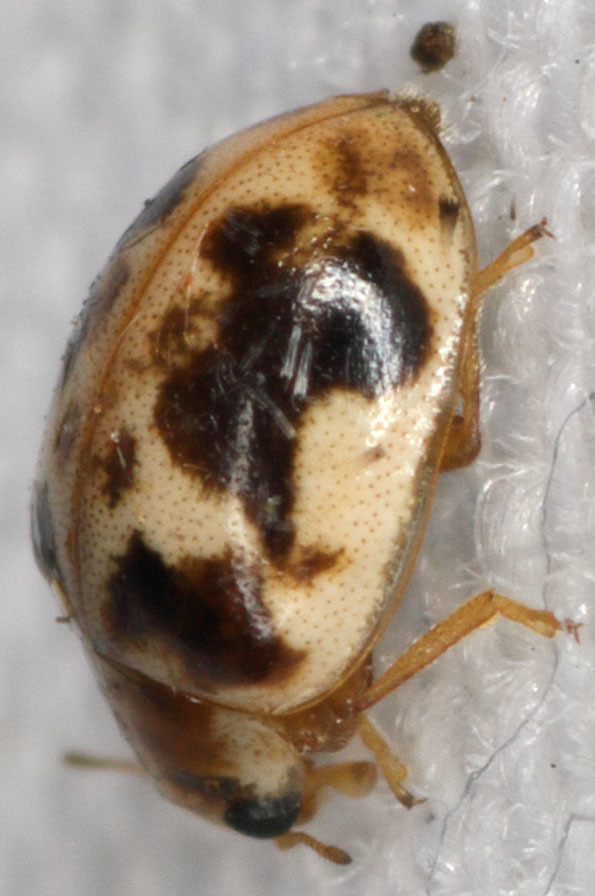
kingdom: Animalia
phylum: Arthropoda
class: Insecta
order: Coleoptera
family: Coccinellidae
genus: Psyllobora
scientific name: Psyllobora renifer
